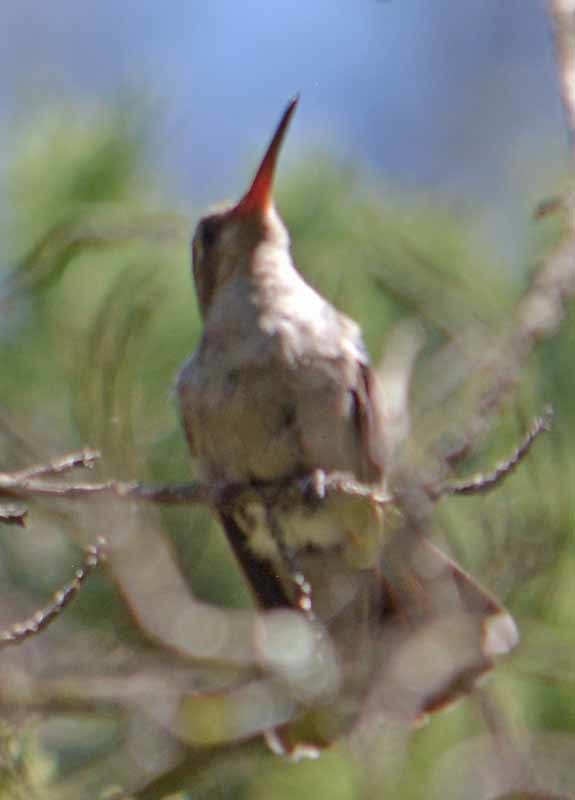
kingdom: Animalia
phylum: Chordata
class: Aves
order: Apodiformes
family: Trochilidae
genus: Cynanthus
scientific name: Cynanthus latirostris
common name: Broad-billed hummingbird
